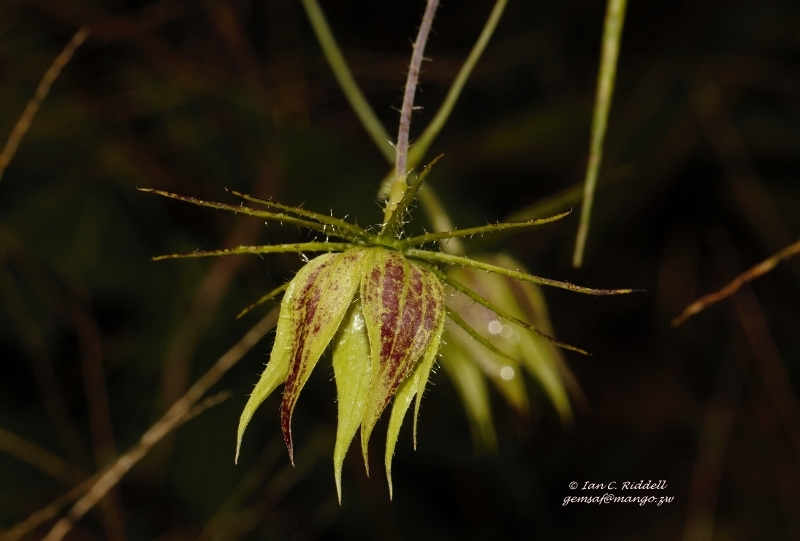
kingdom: Plantae
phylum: Tracheophyta
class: Magnoliopsida
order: Malvales
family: Malvaceae
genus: Hibiscus
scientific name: Hibiscus caesius
